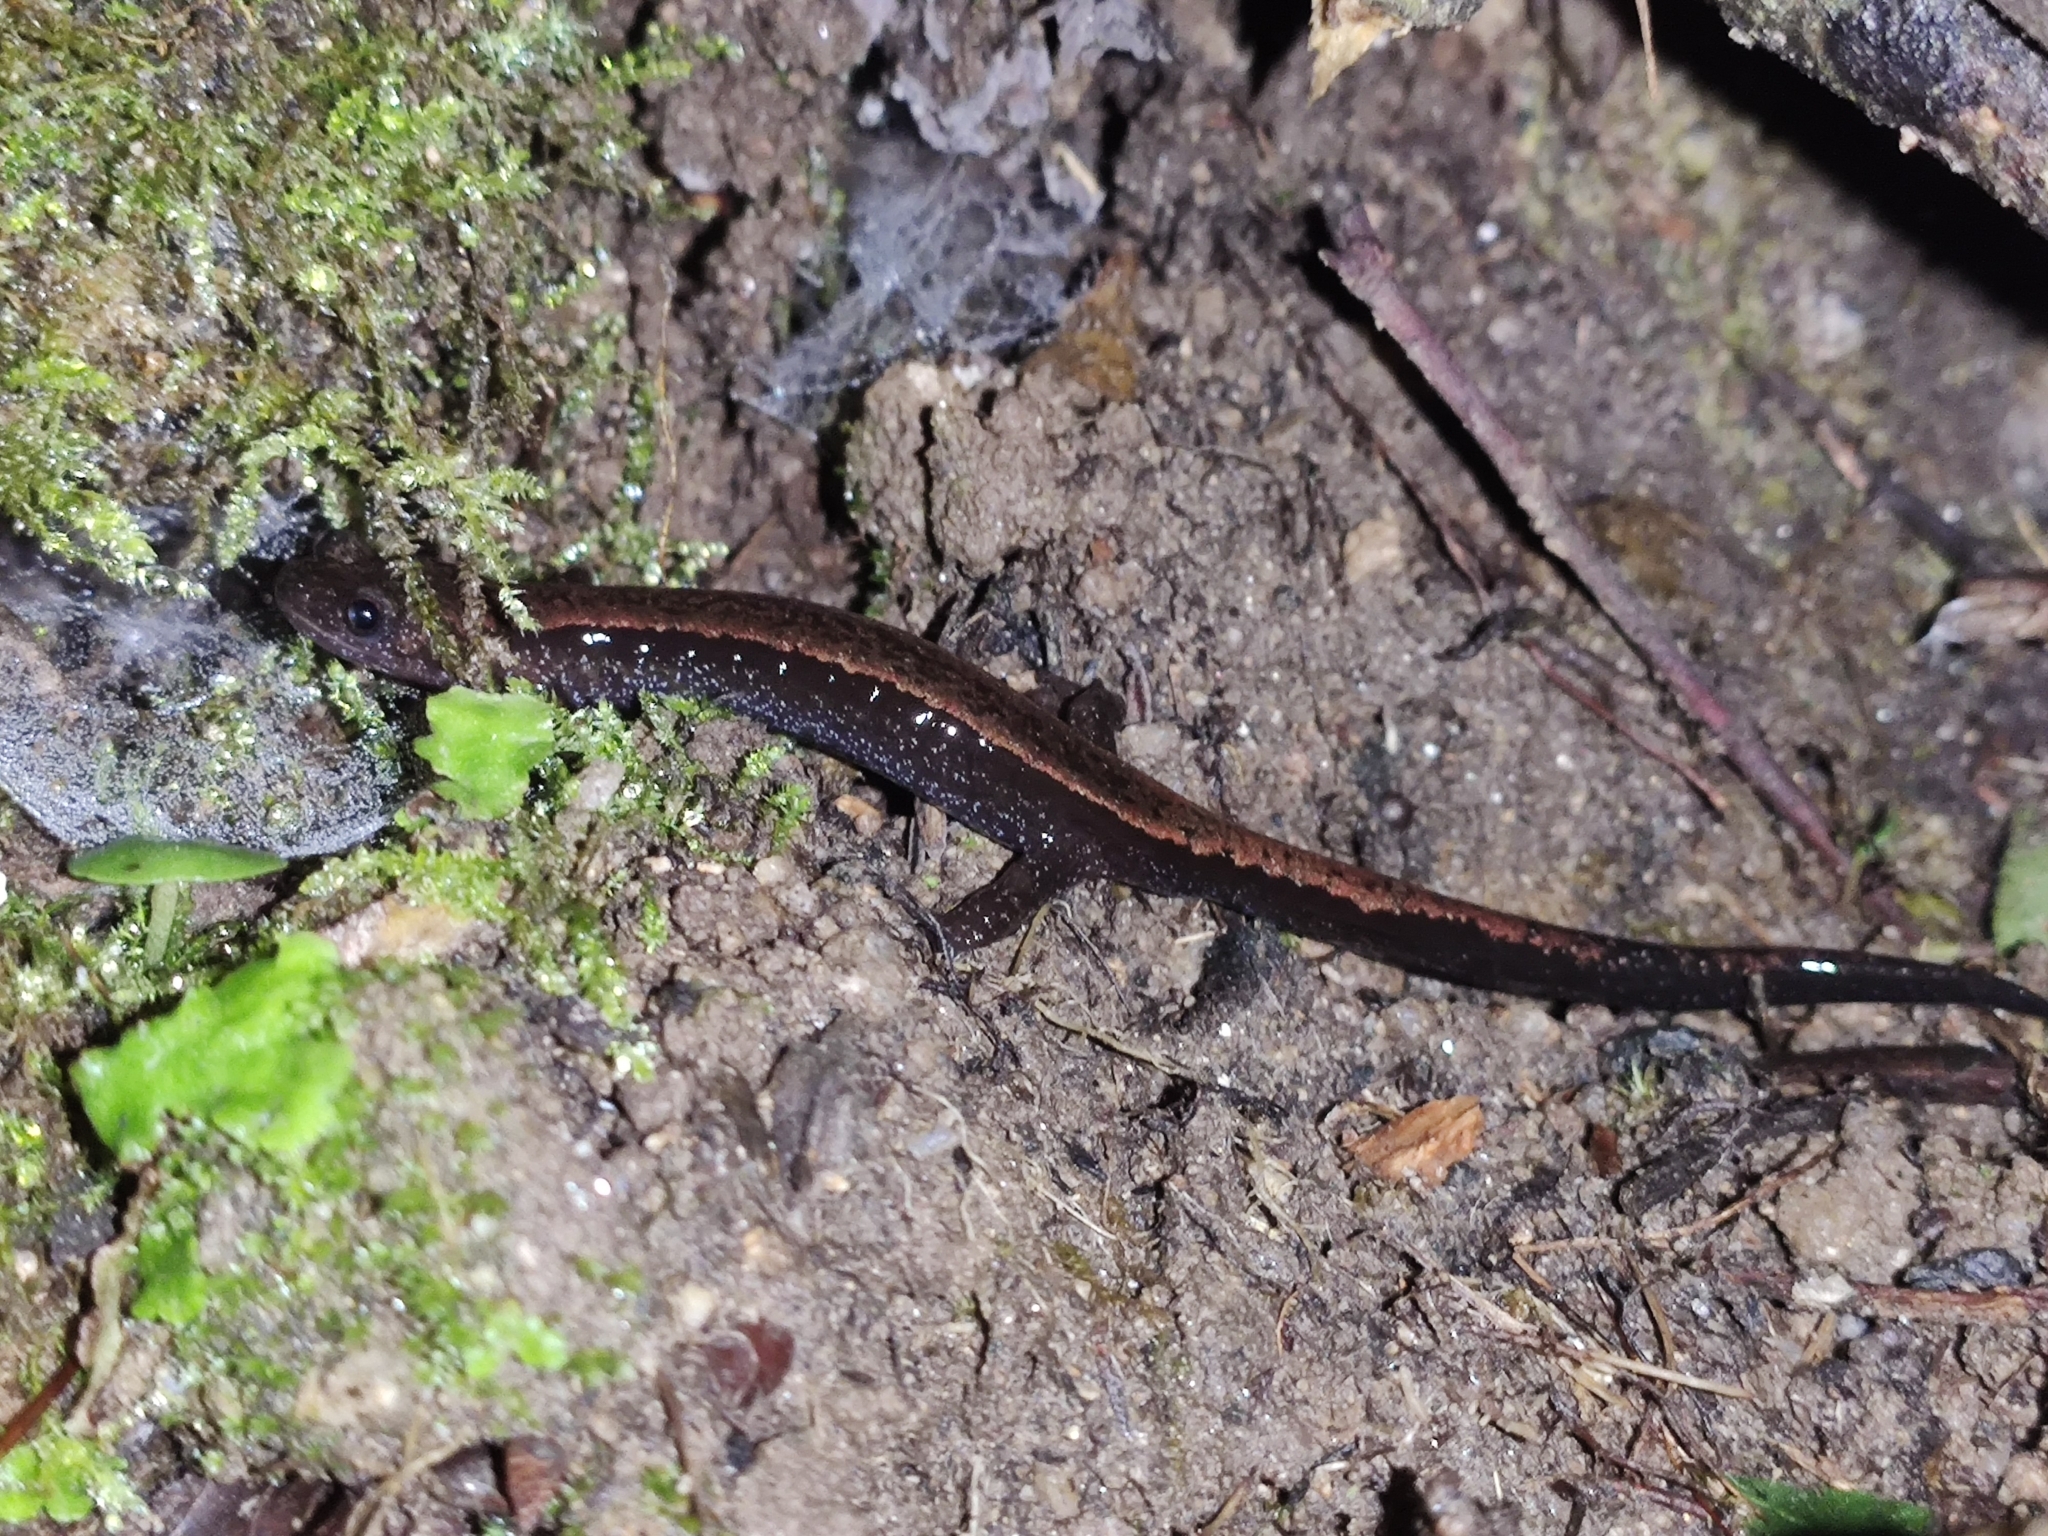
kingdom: Animalia
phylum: Chordata
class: Amphibia
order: Caudata
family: Salamandridae
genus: Chioglossa
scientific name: Chioglossa lusitanica
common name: Gold-striped salamander
